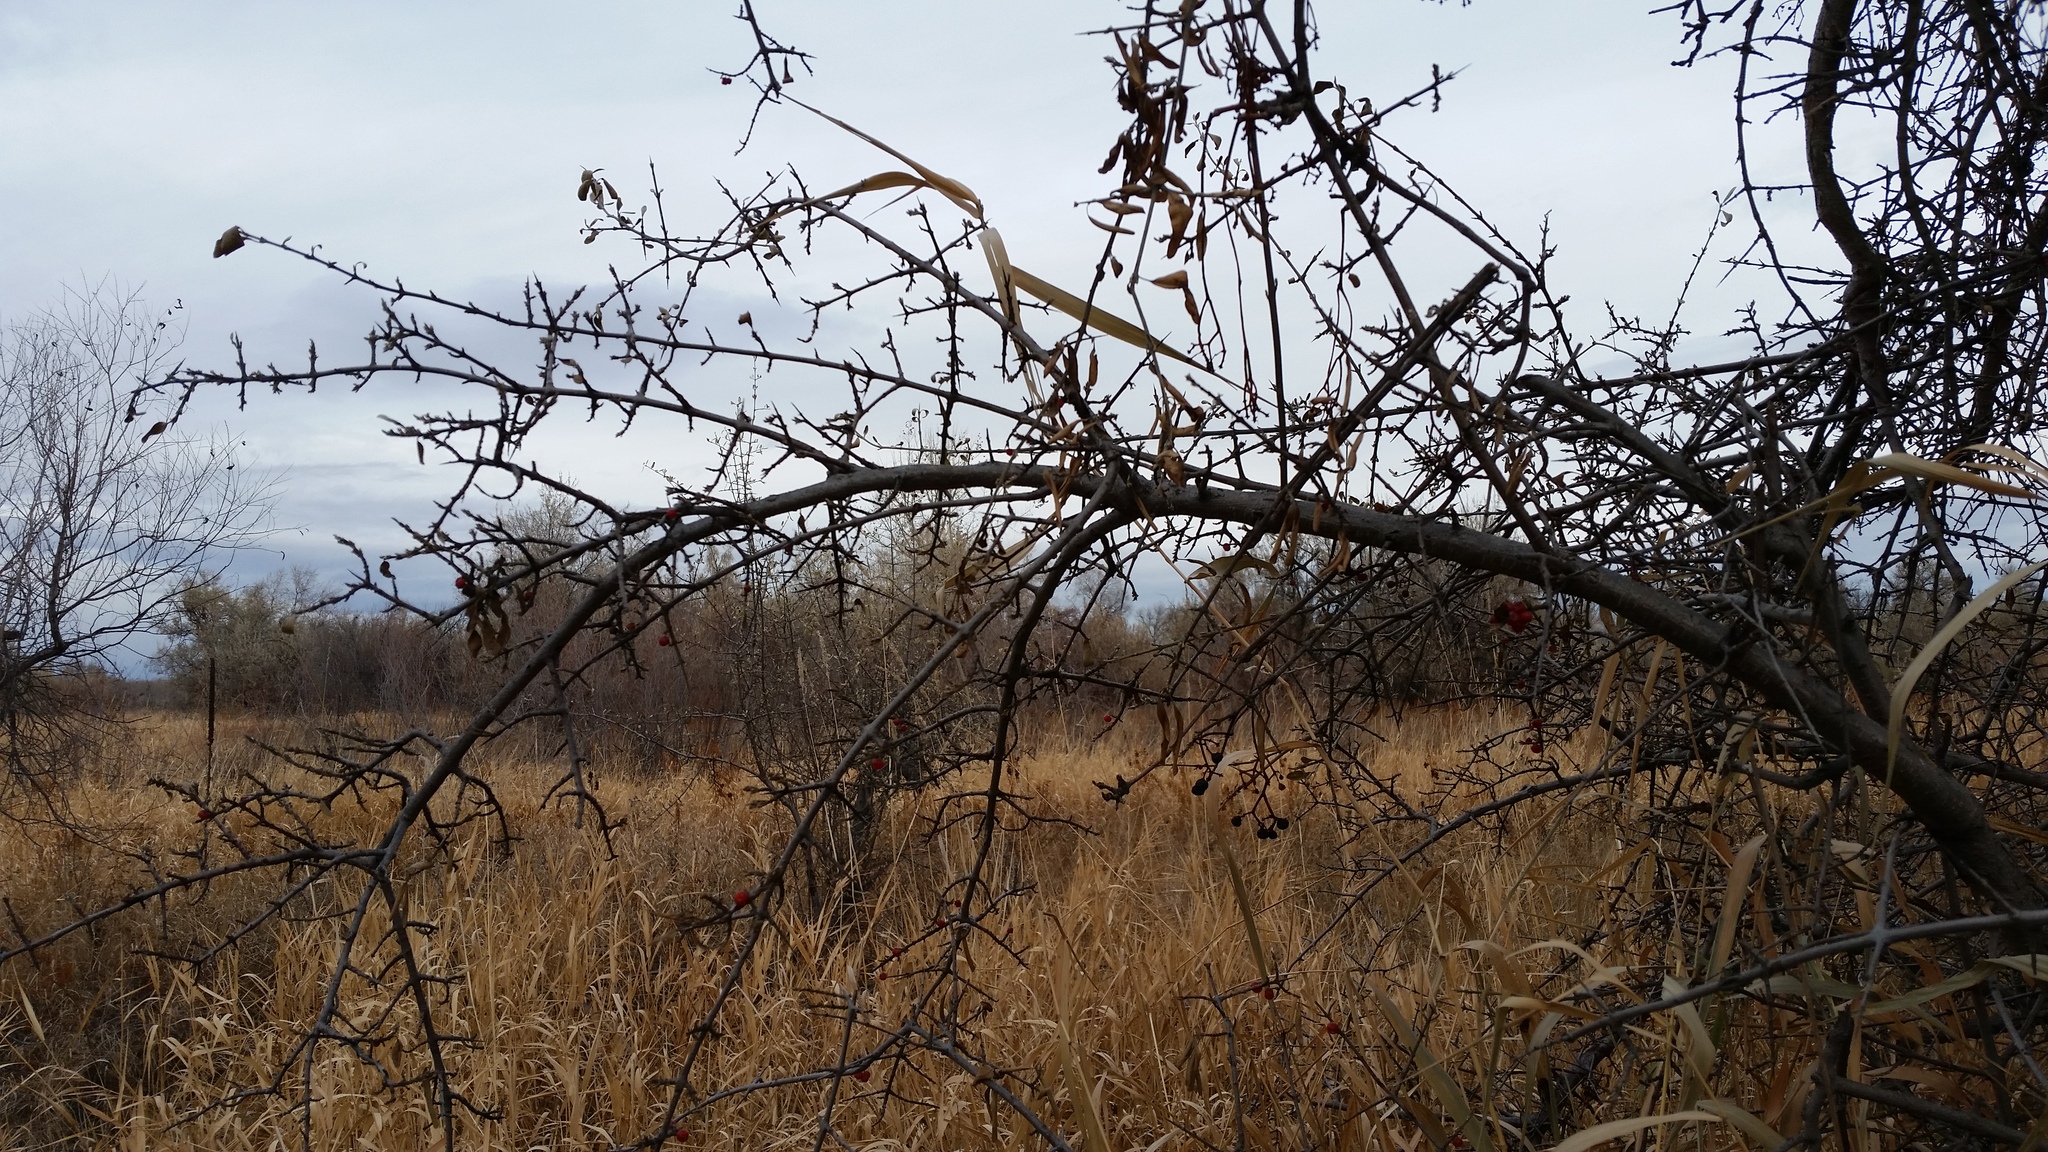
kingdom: Plantae
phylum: Tracheophyta
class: Magnoliopsida
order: Rosales
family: Elaeagnaceae
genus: Shepherdia
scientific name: Shepherdia argentea
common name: Silver buffaloberry
